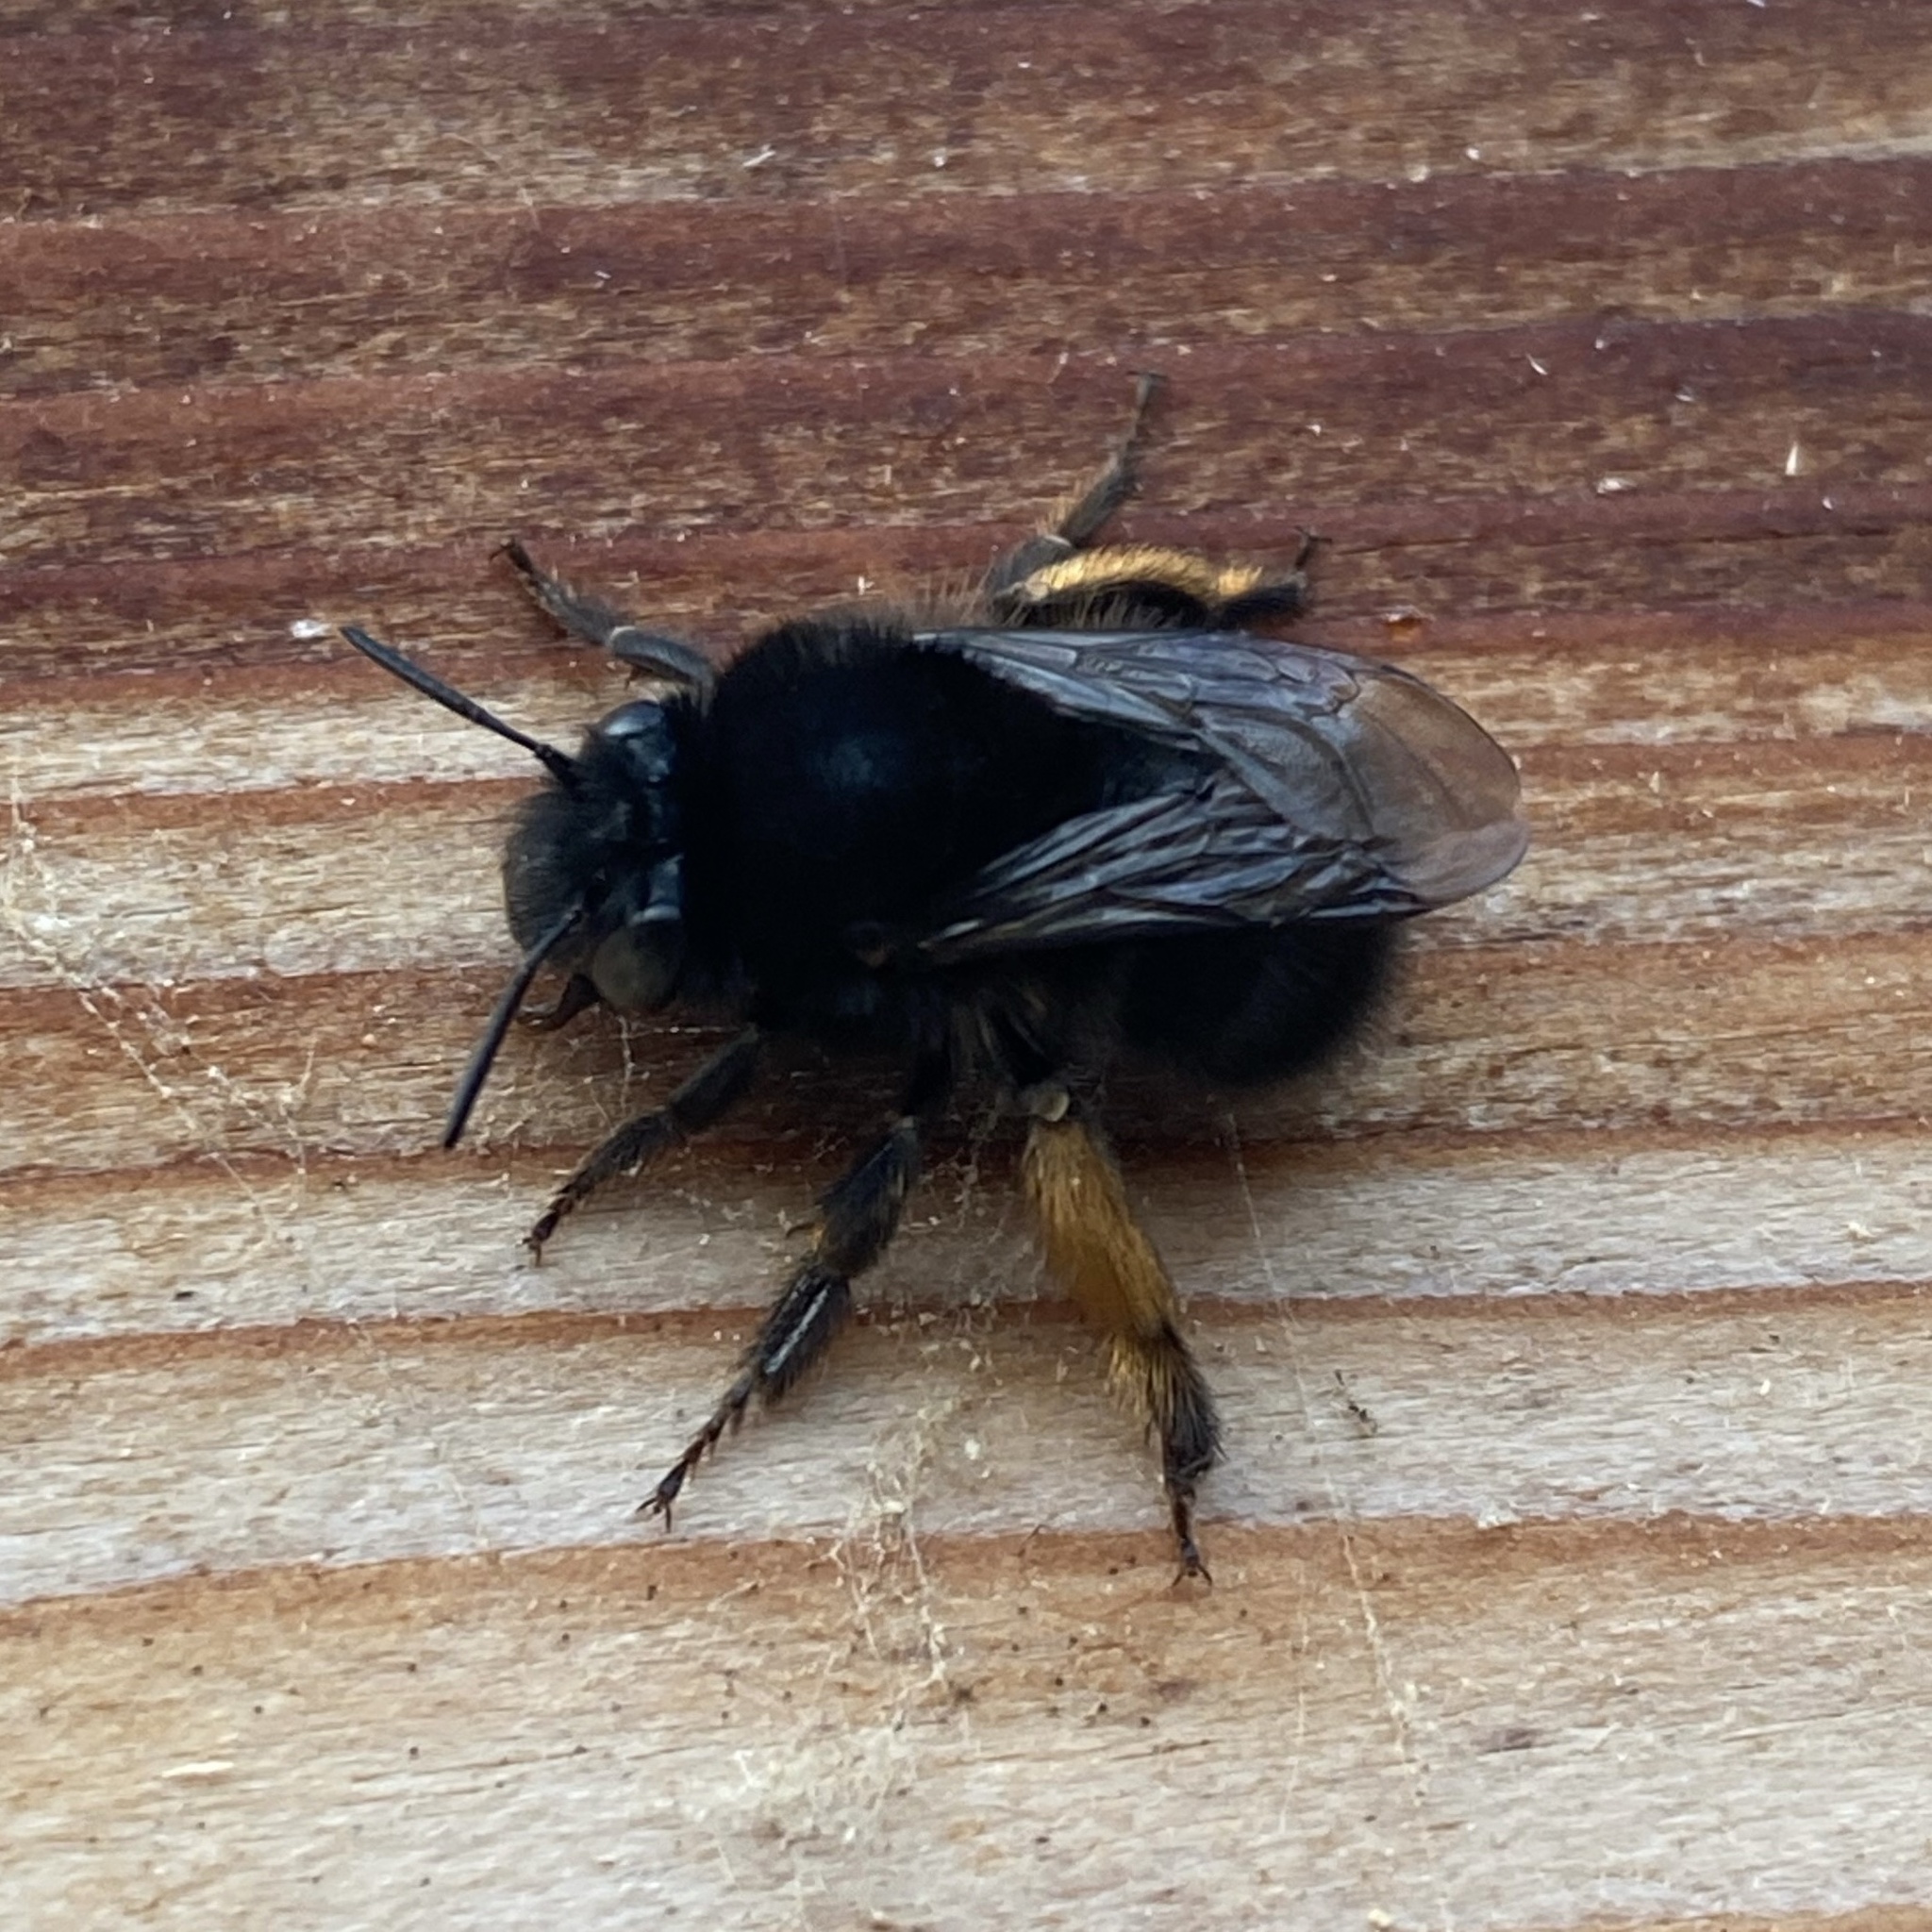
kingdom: Animalia
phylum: Arthropoda
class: Insecta
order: Hymenoptera
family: Apidae
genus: Anthophora
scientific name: Anthophora plumipes
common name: Hairy-footed flower bee
